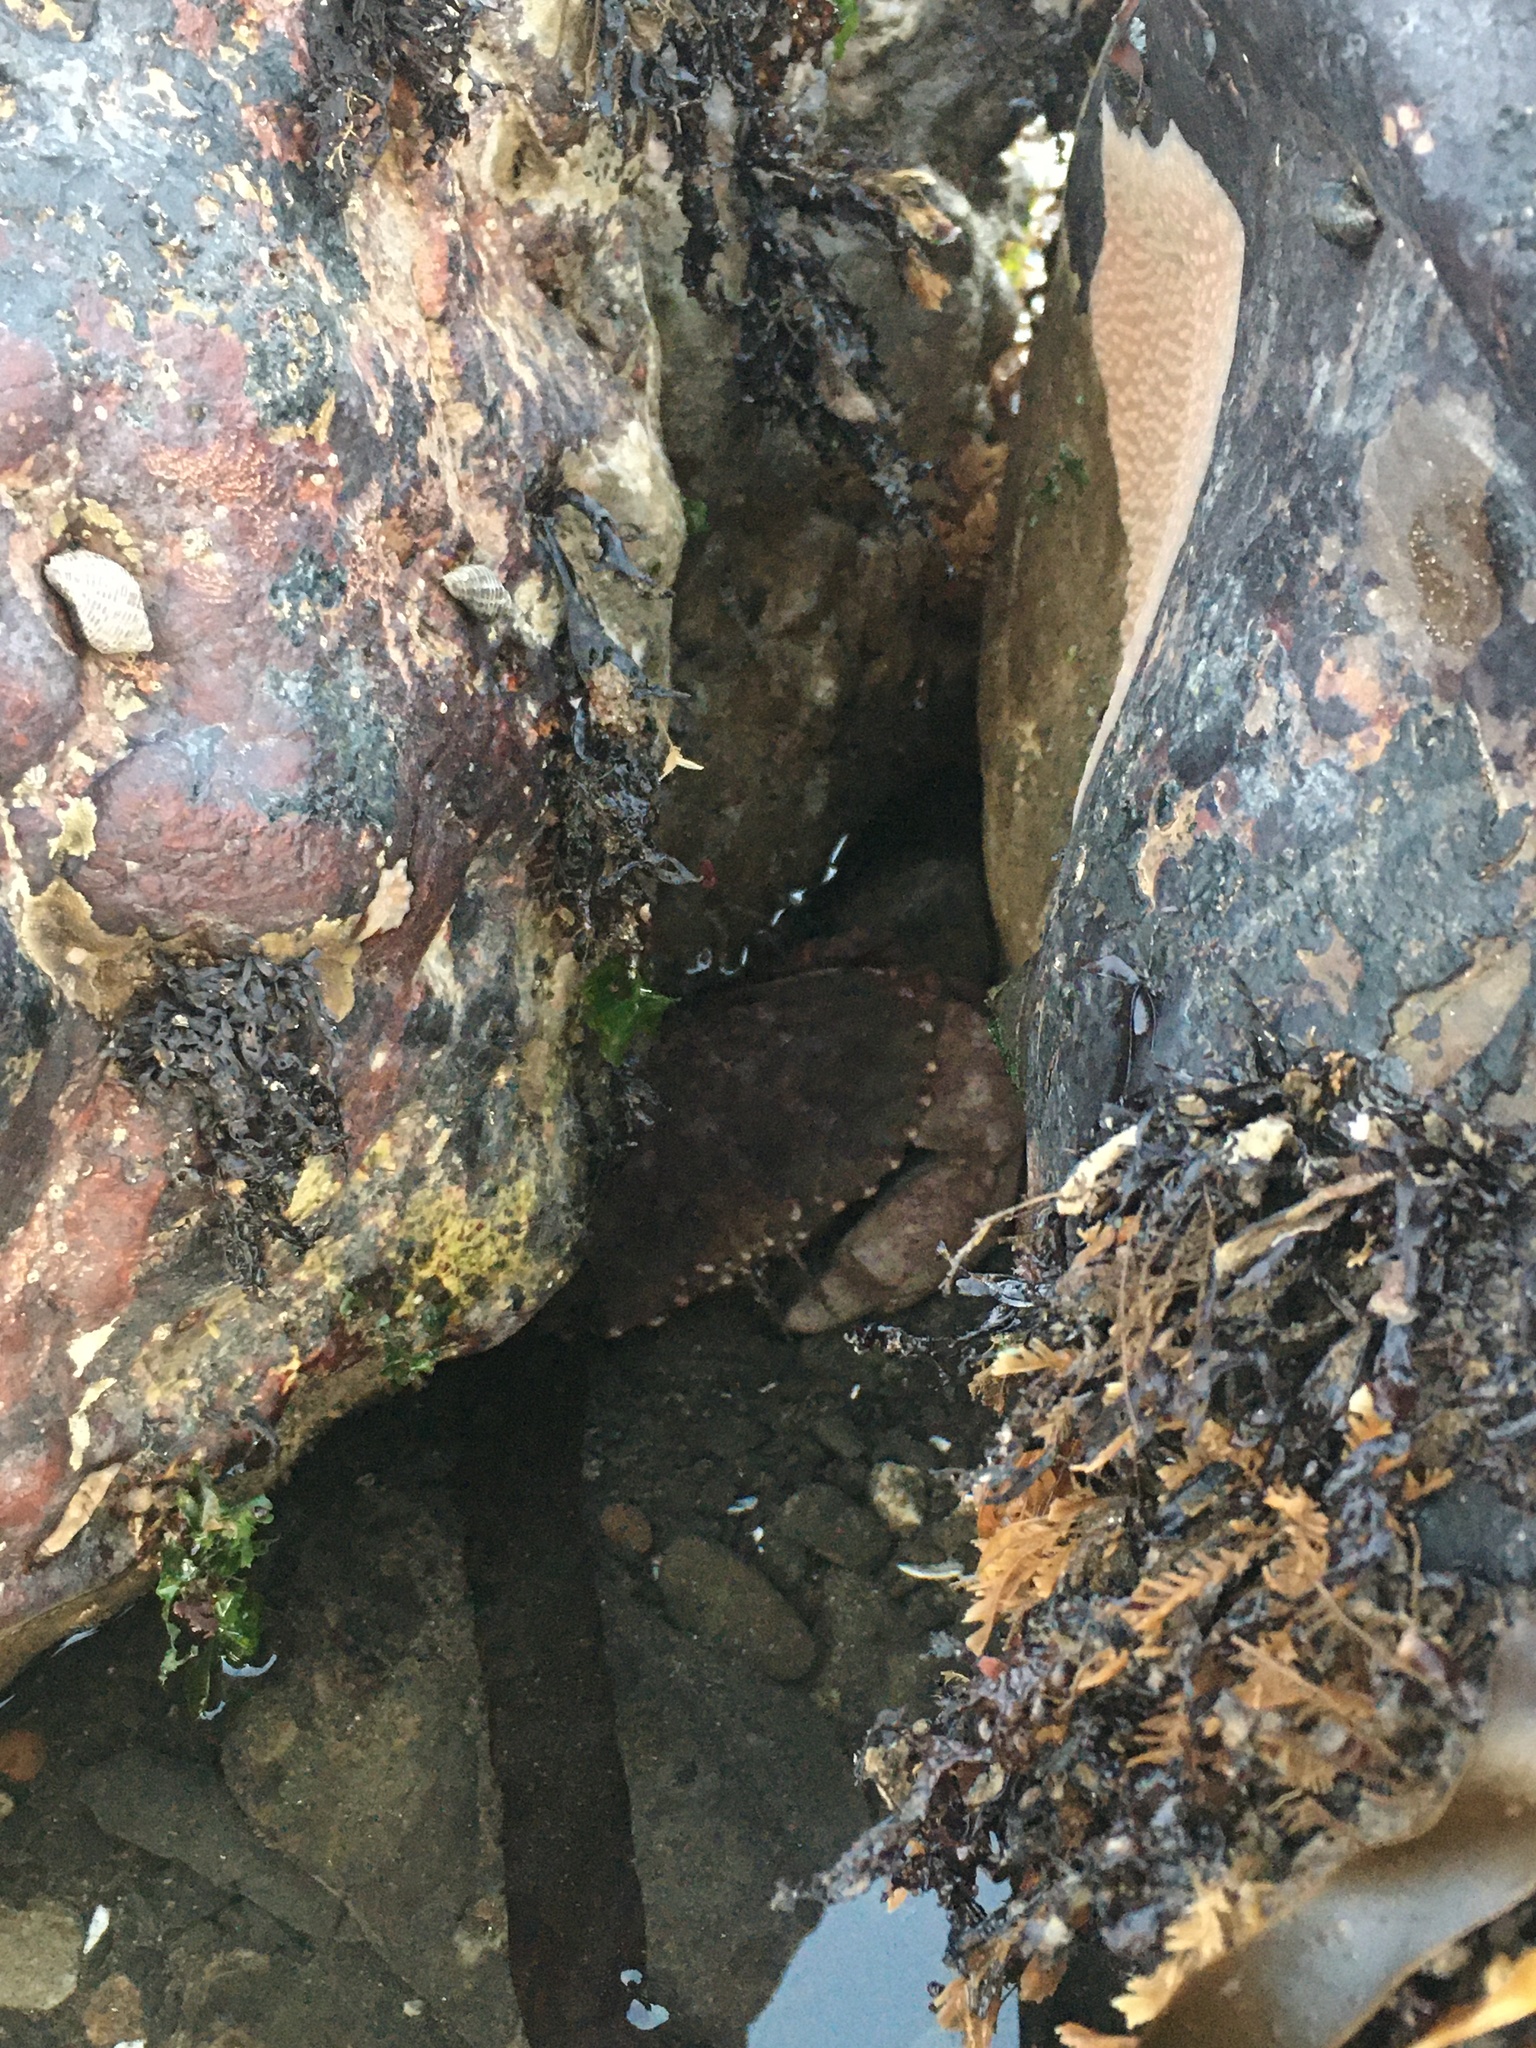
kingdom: Animalia
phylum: Arthropoda
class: Malacostraca
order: Decapoda
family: Cancridae
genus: Romaleon
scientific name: Romaleon antennarium
